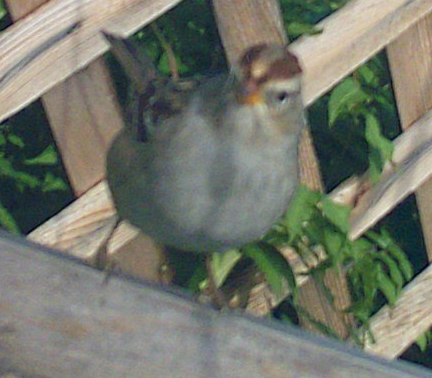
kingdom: Animalia
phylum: Chordata
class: Aves
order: Passeriformes
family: Passerellidae
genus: Zonotrichia
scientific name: Zonotrichia leucophrys
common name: White-crowned sparrow
